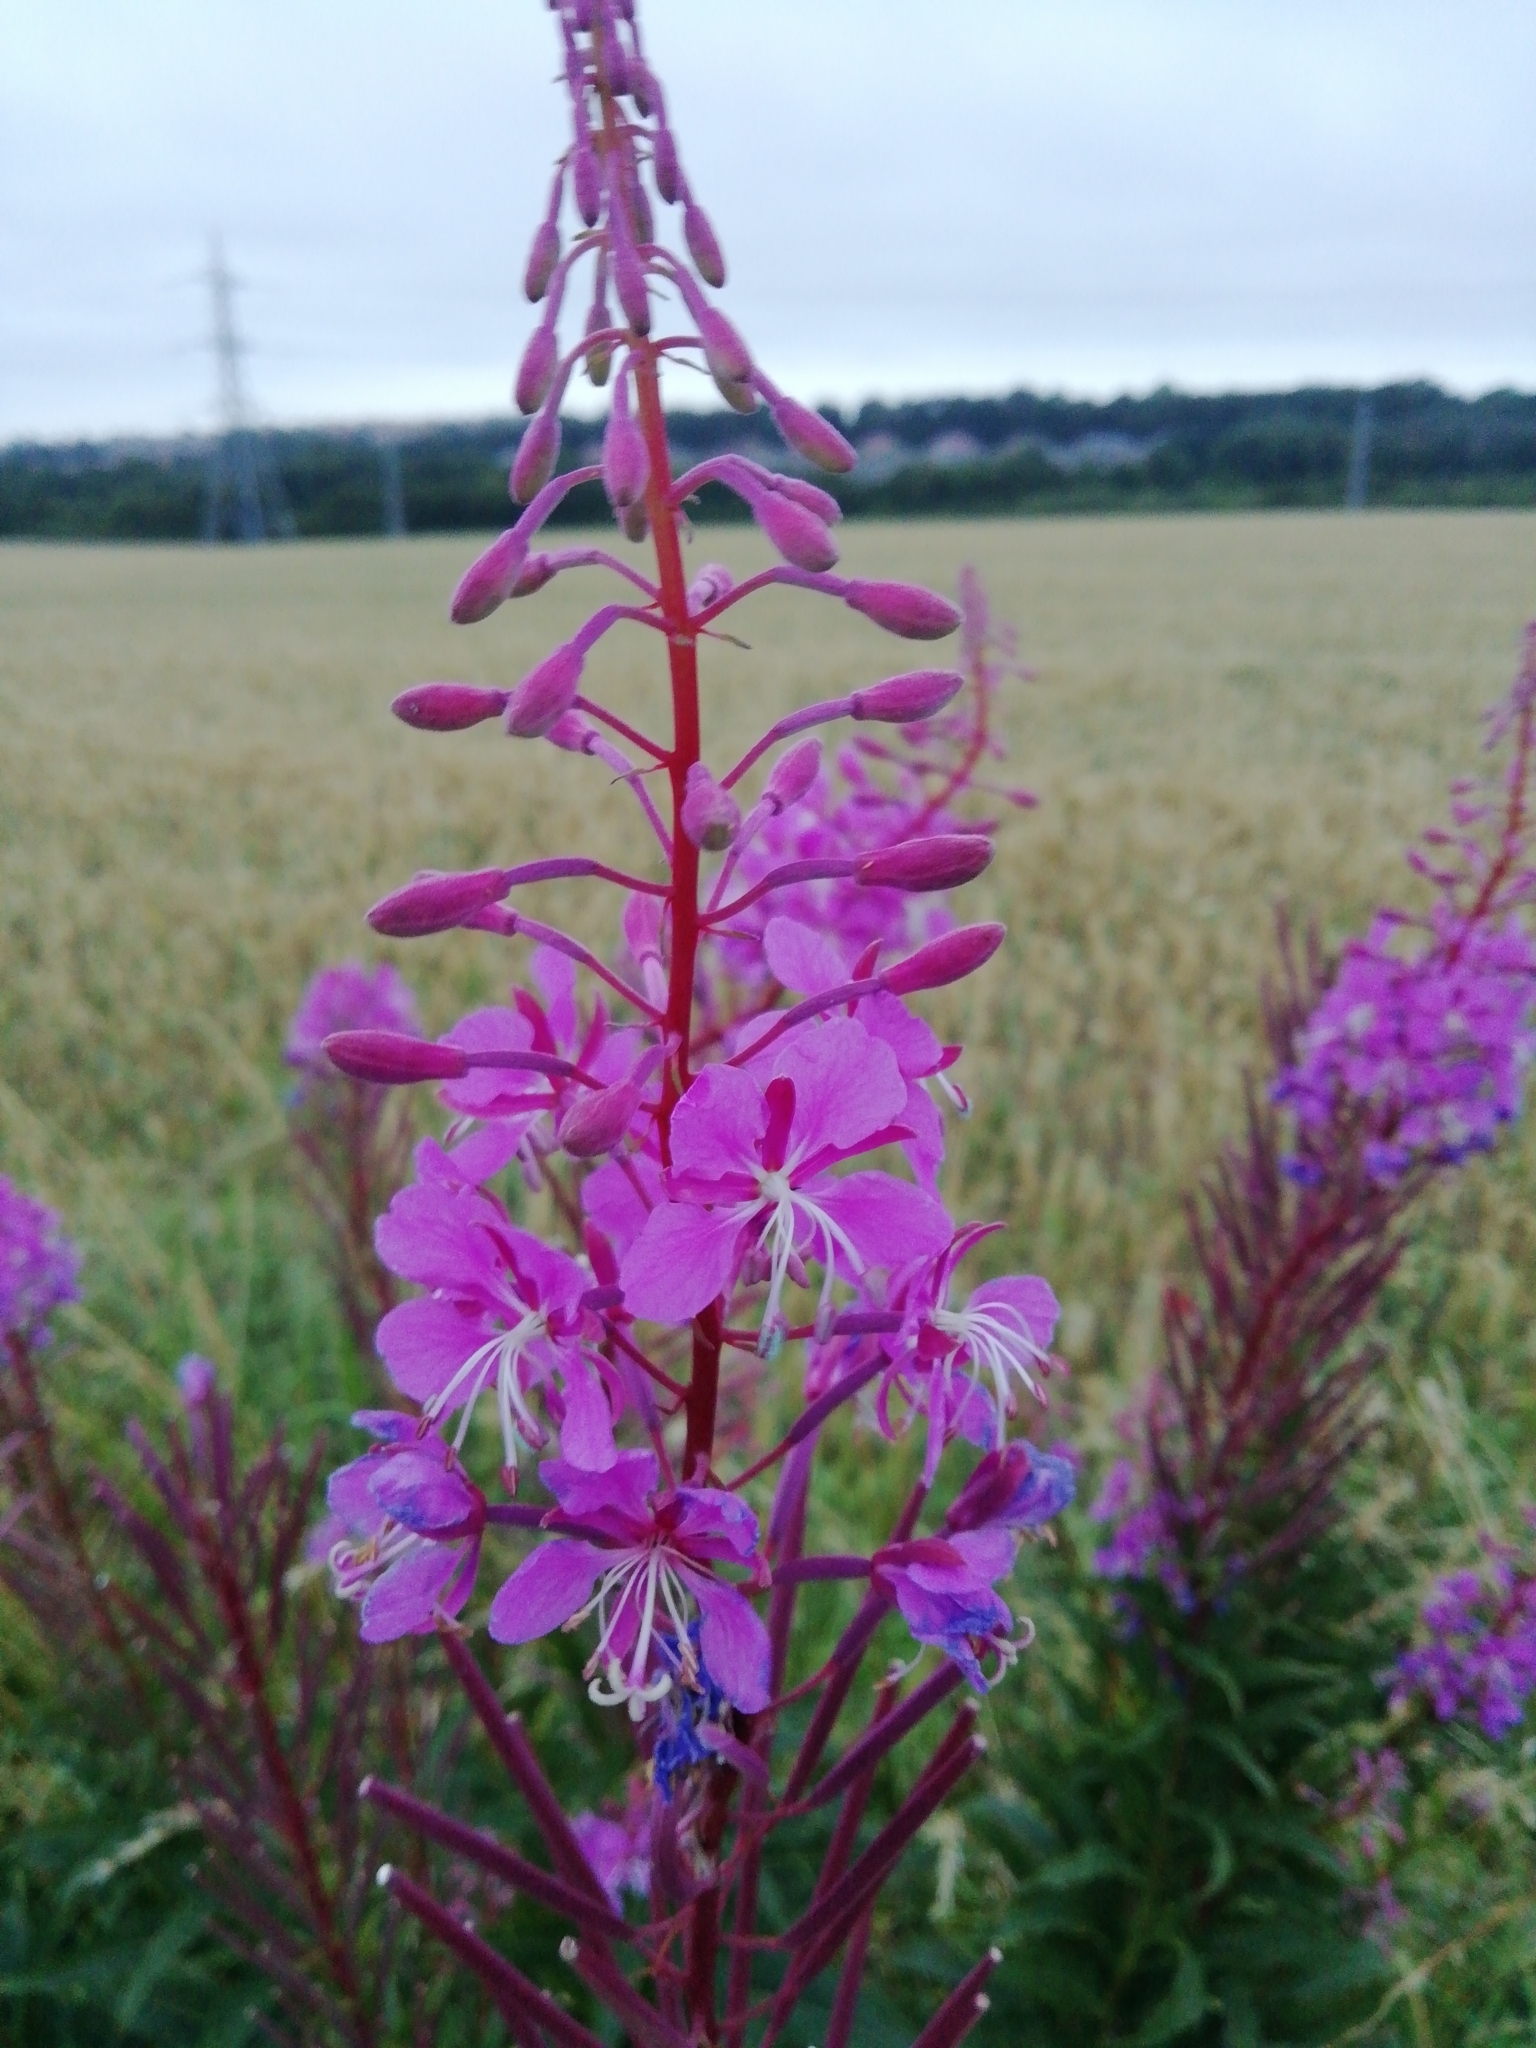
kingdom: Plantae
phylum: Tracheophyta
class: Magnoliopsida
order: Myrtales
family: Onagraceae
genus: Chamaenerion
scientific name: Chamaenerion angustifolium
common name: Fireweed
